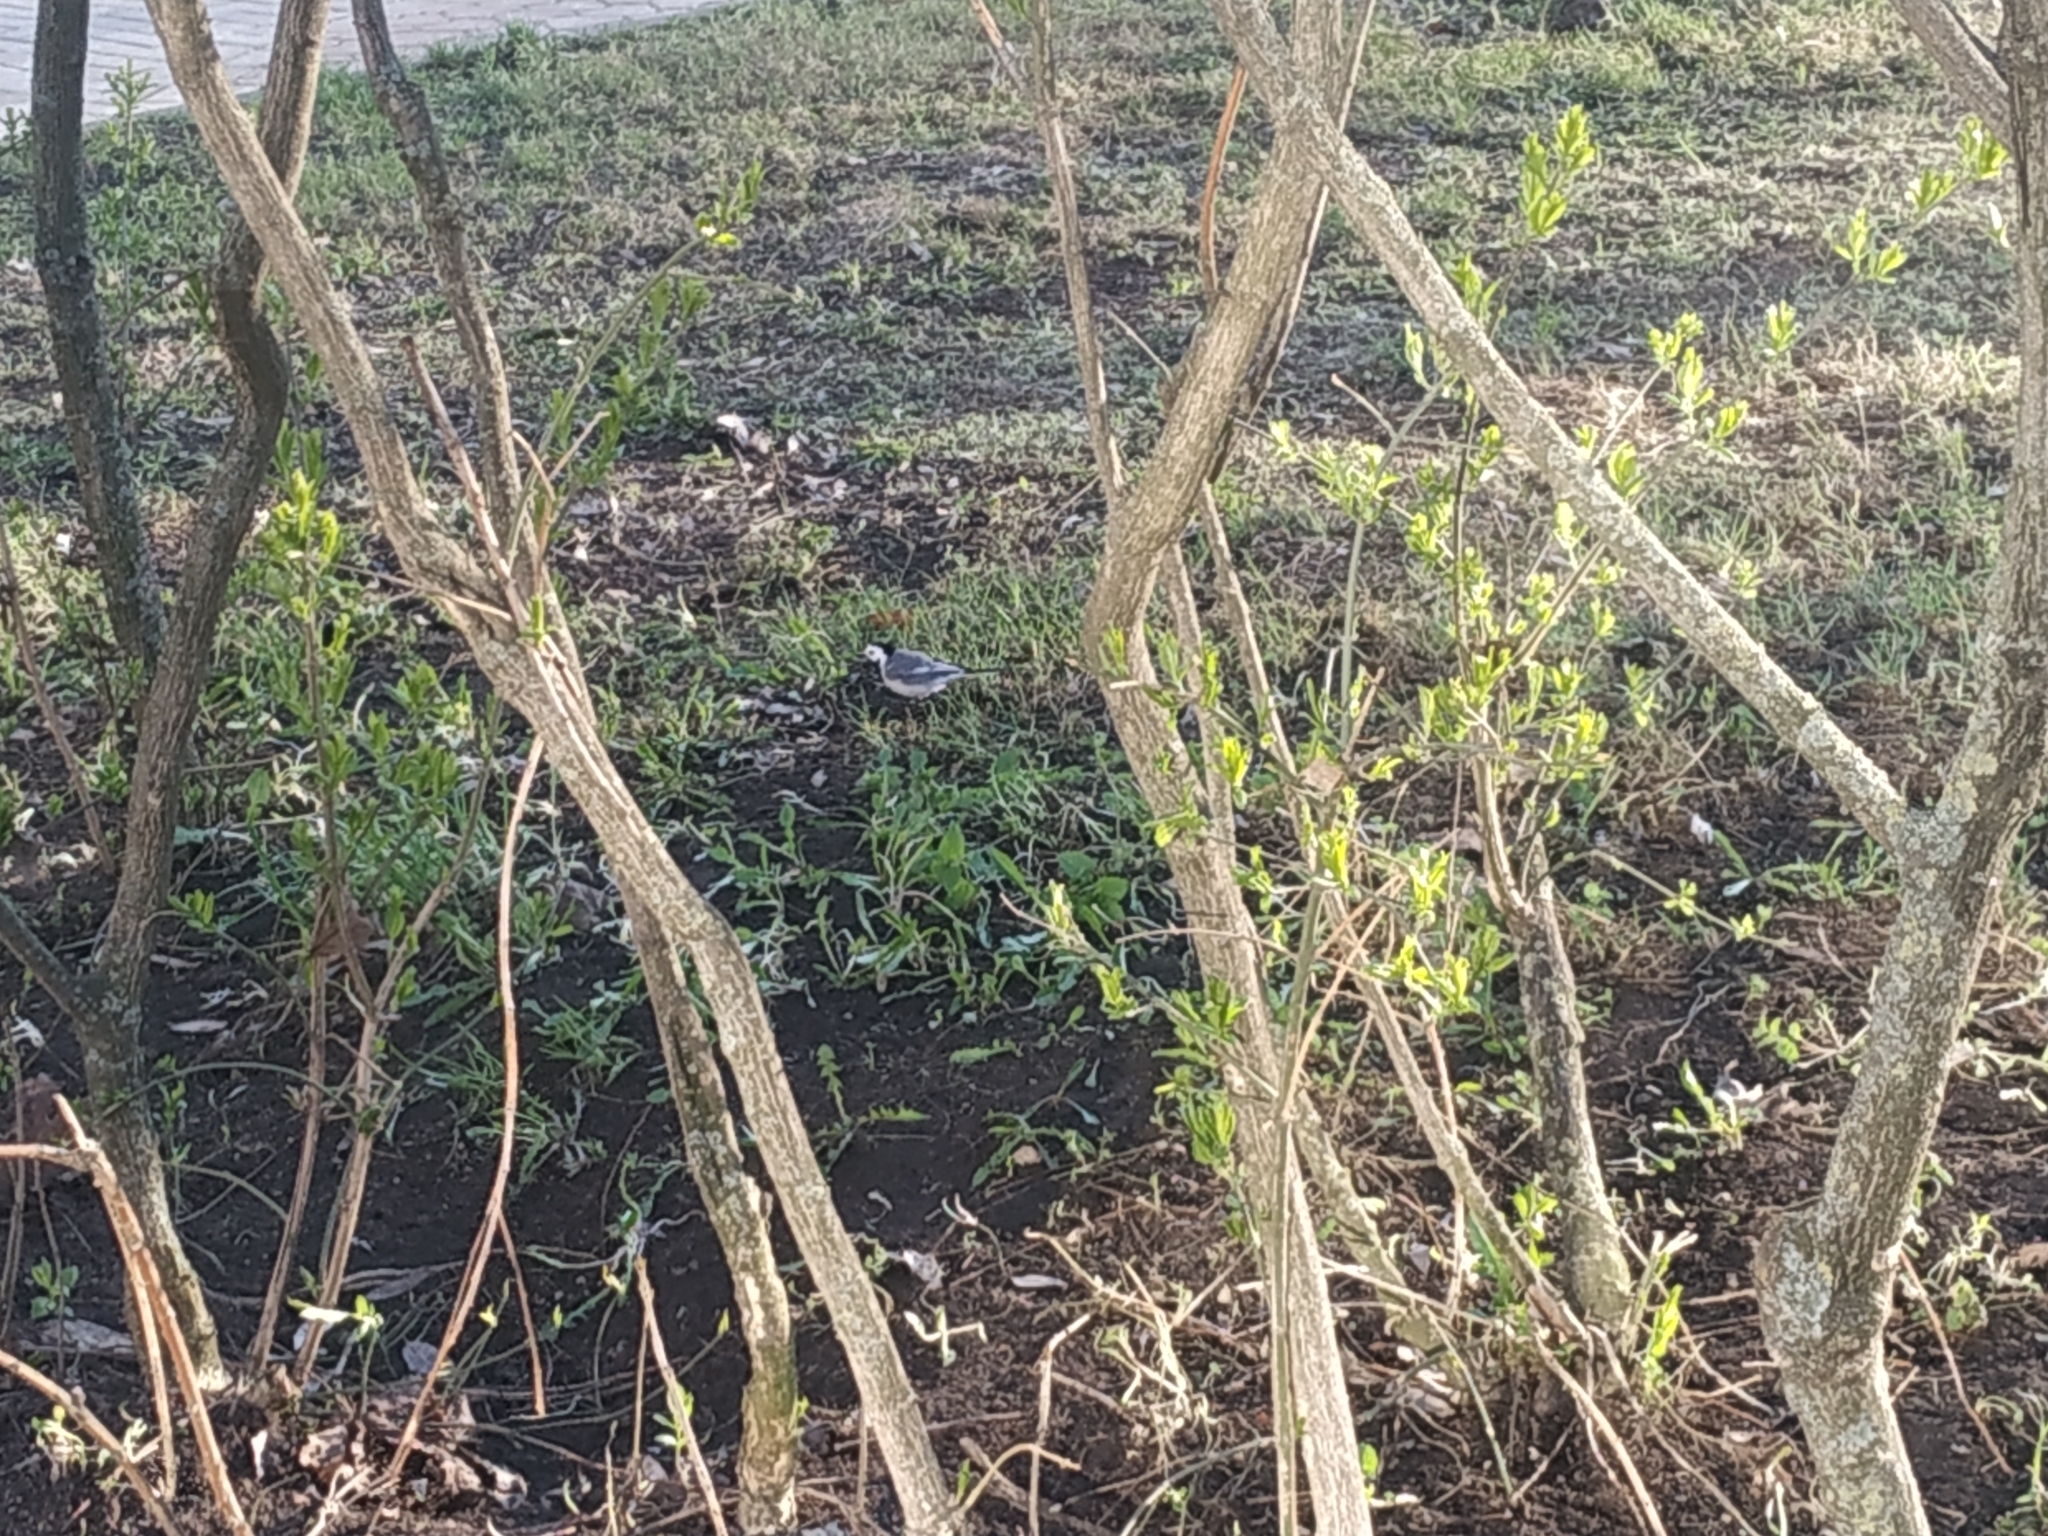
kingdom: Animalia
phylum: Chordata
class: Aves
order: Passeriformes
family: Motacillidae
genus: Motacilla
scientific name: Motacilla alba
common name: White wagtail
